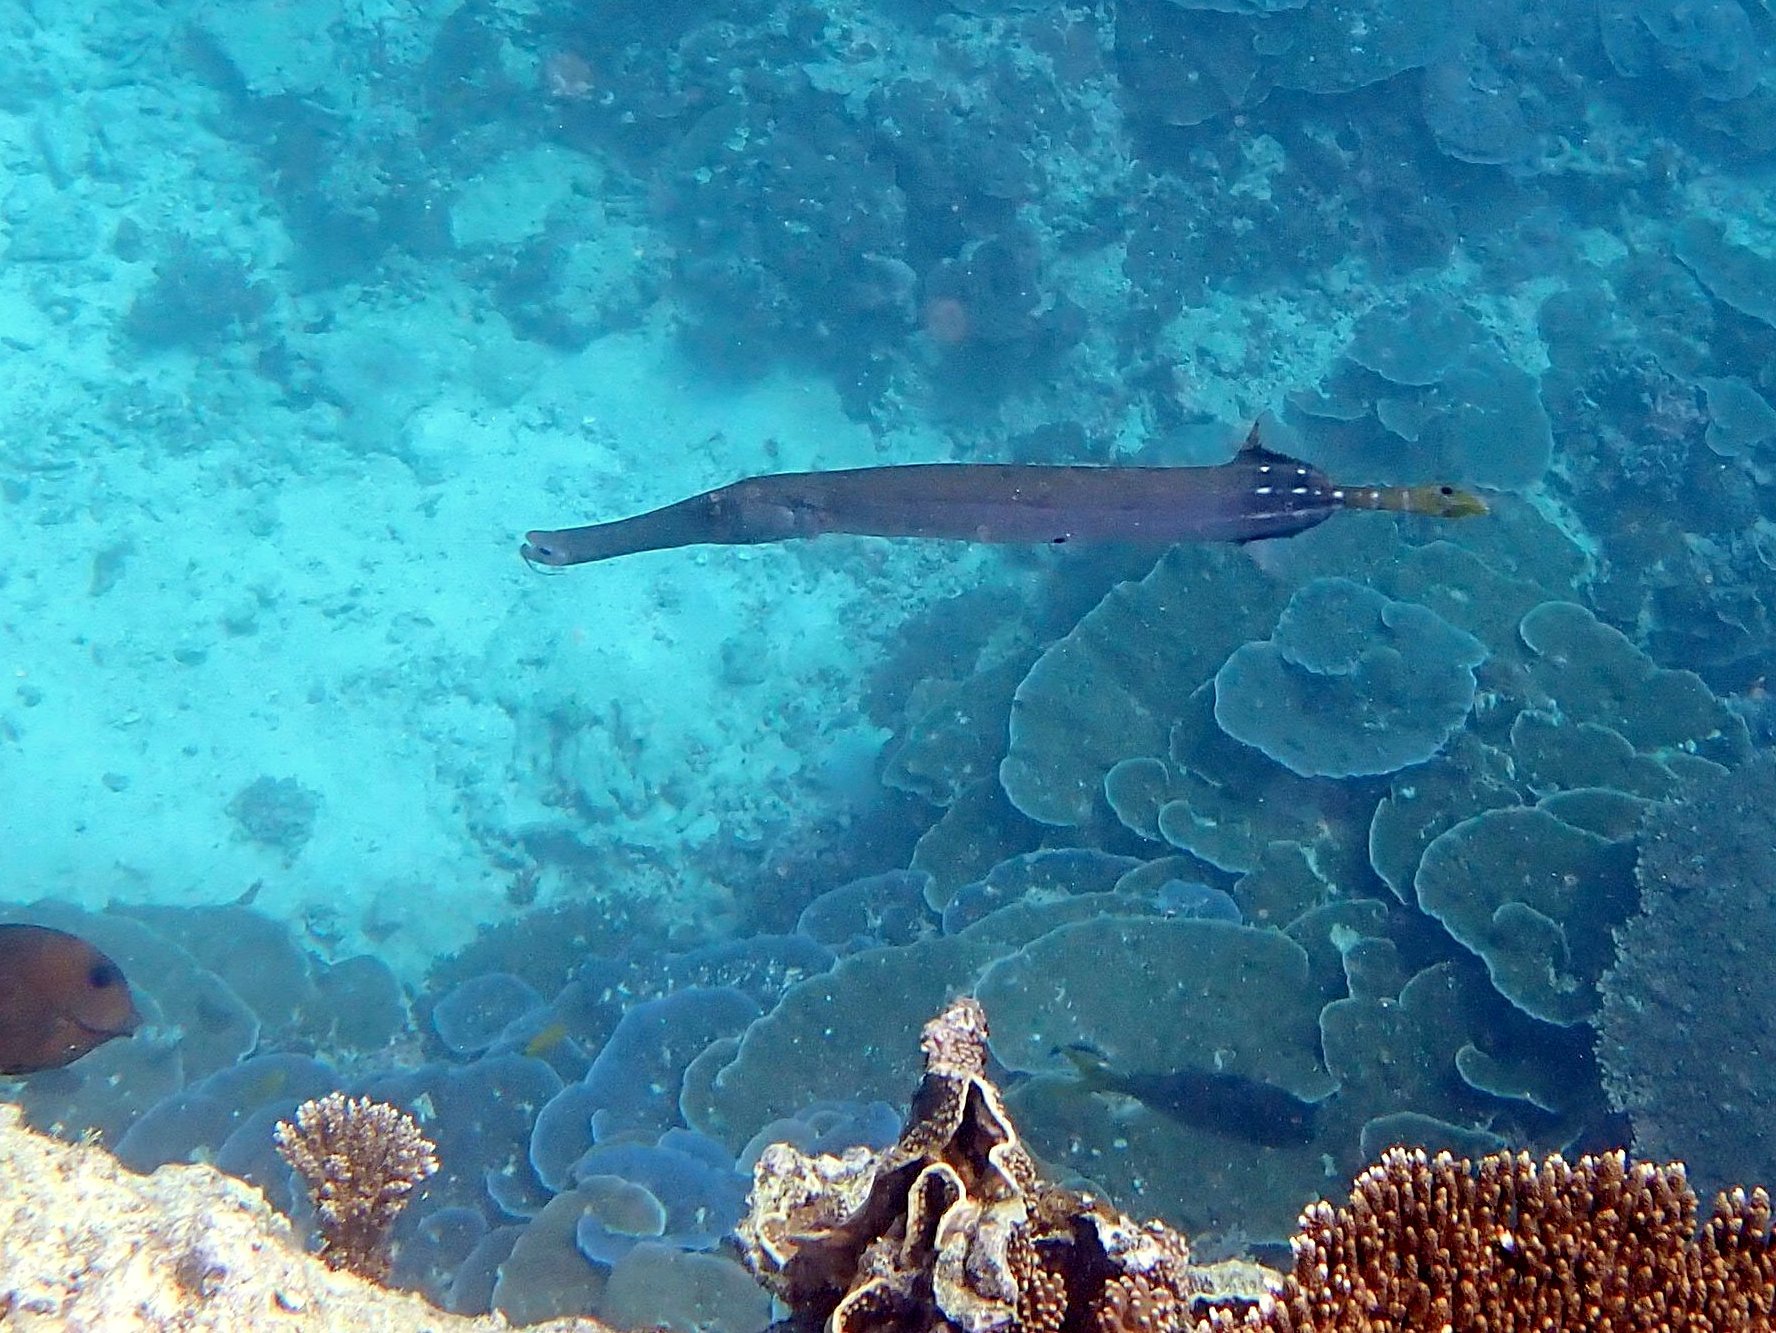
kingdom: Animalia
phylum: Chordata
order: Syngnathiformes
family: Aulostomidae
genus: Aulostomus
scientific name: Aulostomus chinensis
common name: Chinese trumpetfish
